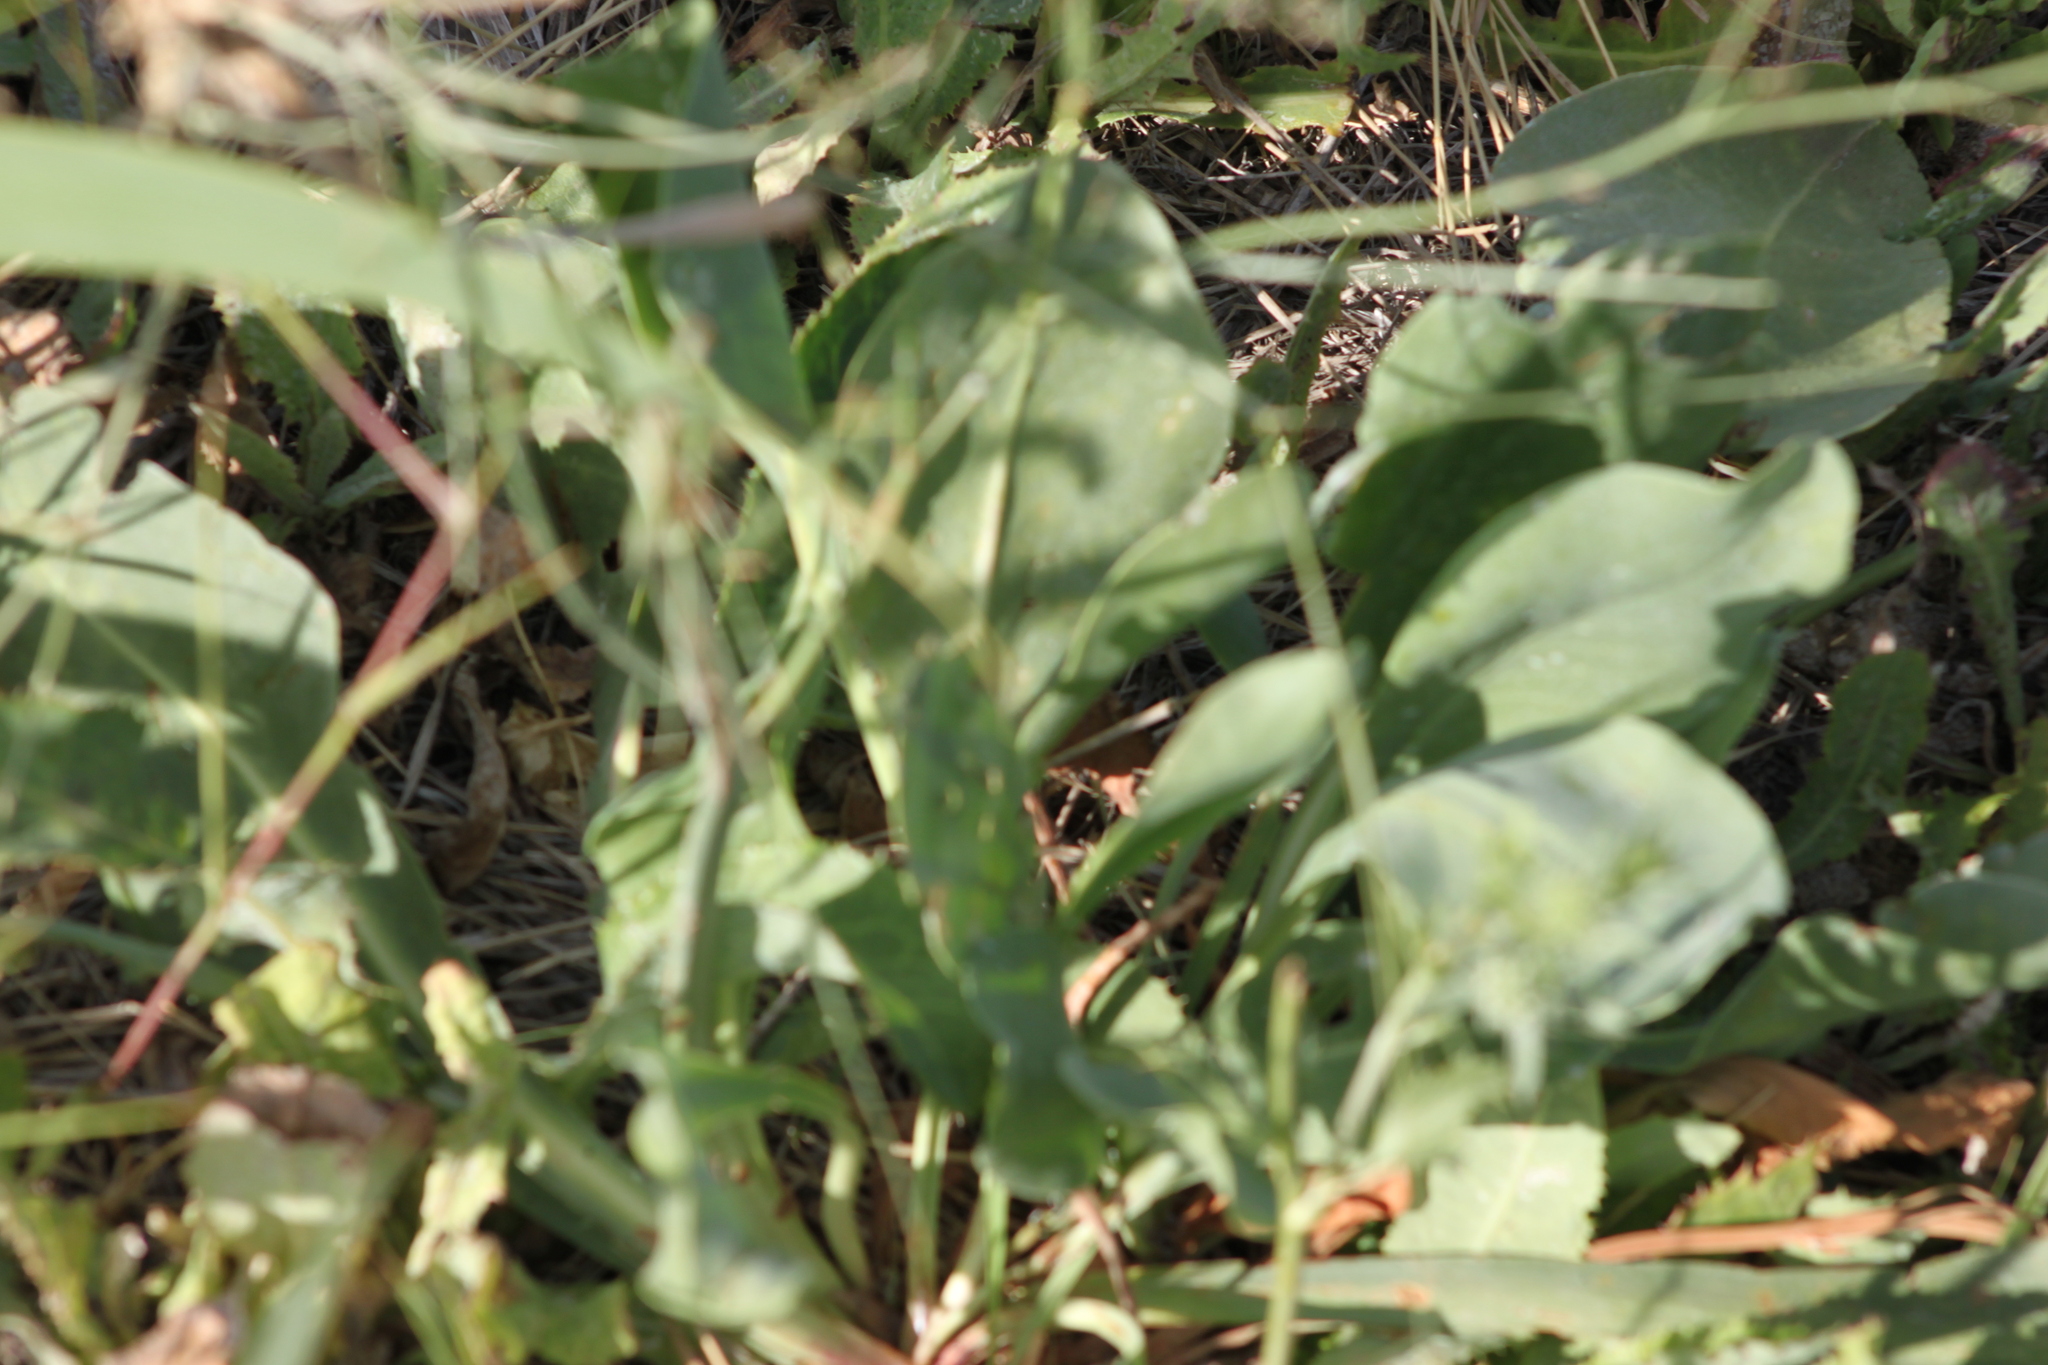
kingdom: Plantae
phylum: Tracheophyta
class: Magnoliopsida
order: Caryophyllales
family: Plumbaginaceae
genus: Limonium
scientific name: Limonium gmelini
